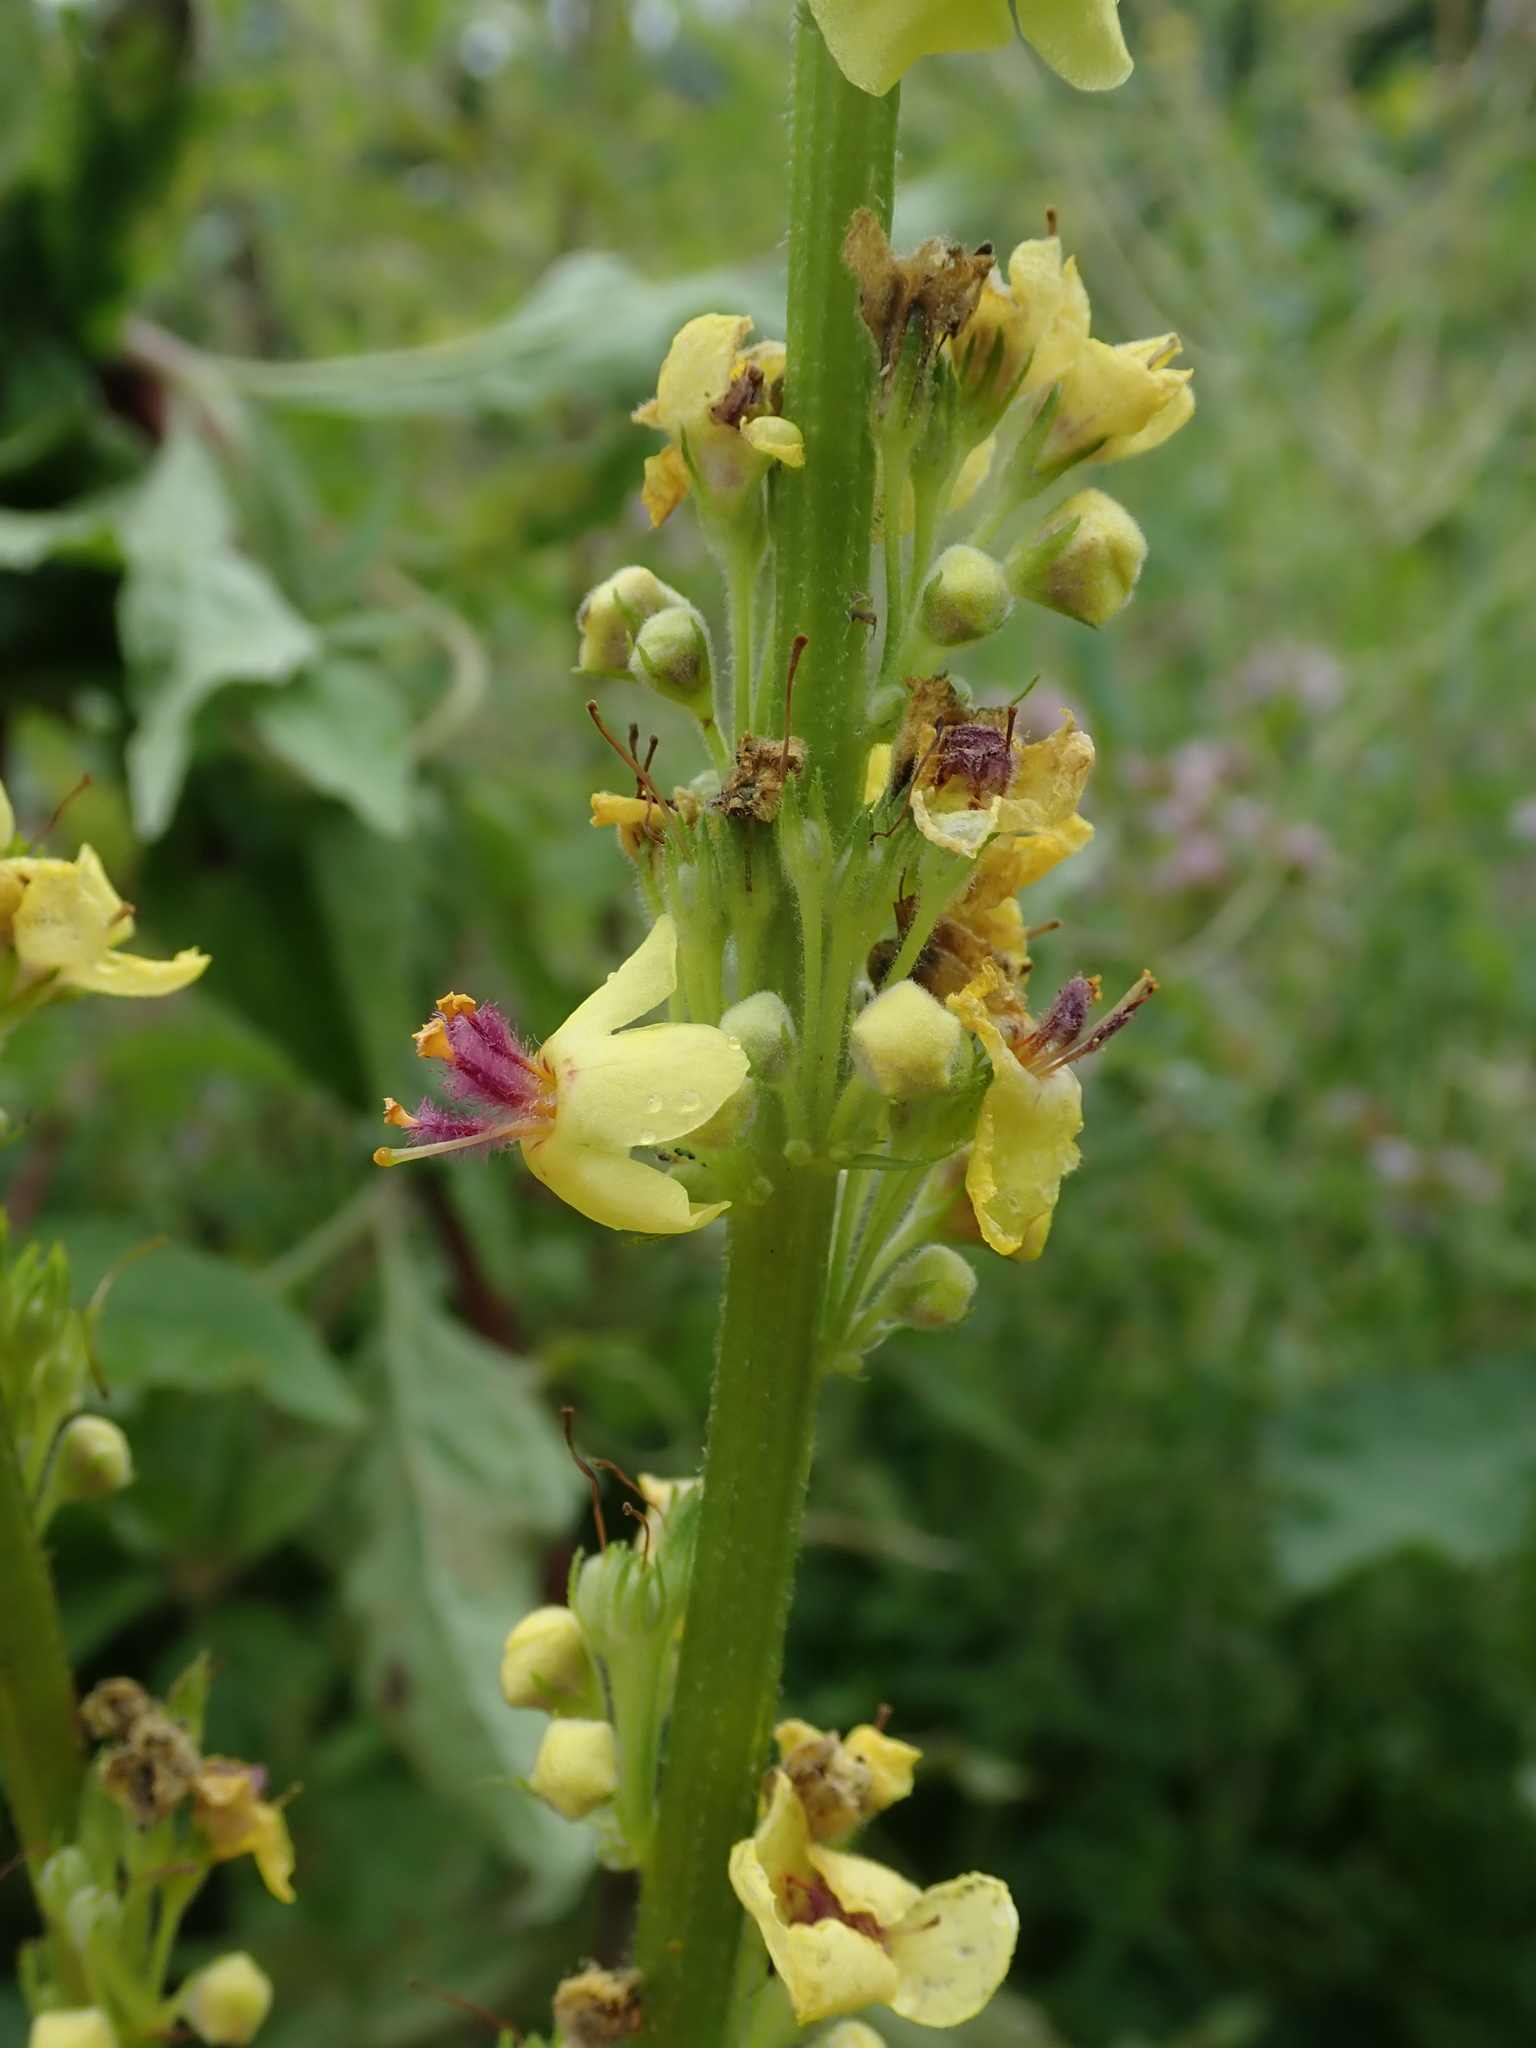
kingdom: Plantae
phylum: Tracheophyta
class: Magnoliopsida
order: Lamiales
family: Scrophulariaceae
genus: Verbascum
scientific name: Verbascum nigrum
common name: Dark mullein
